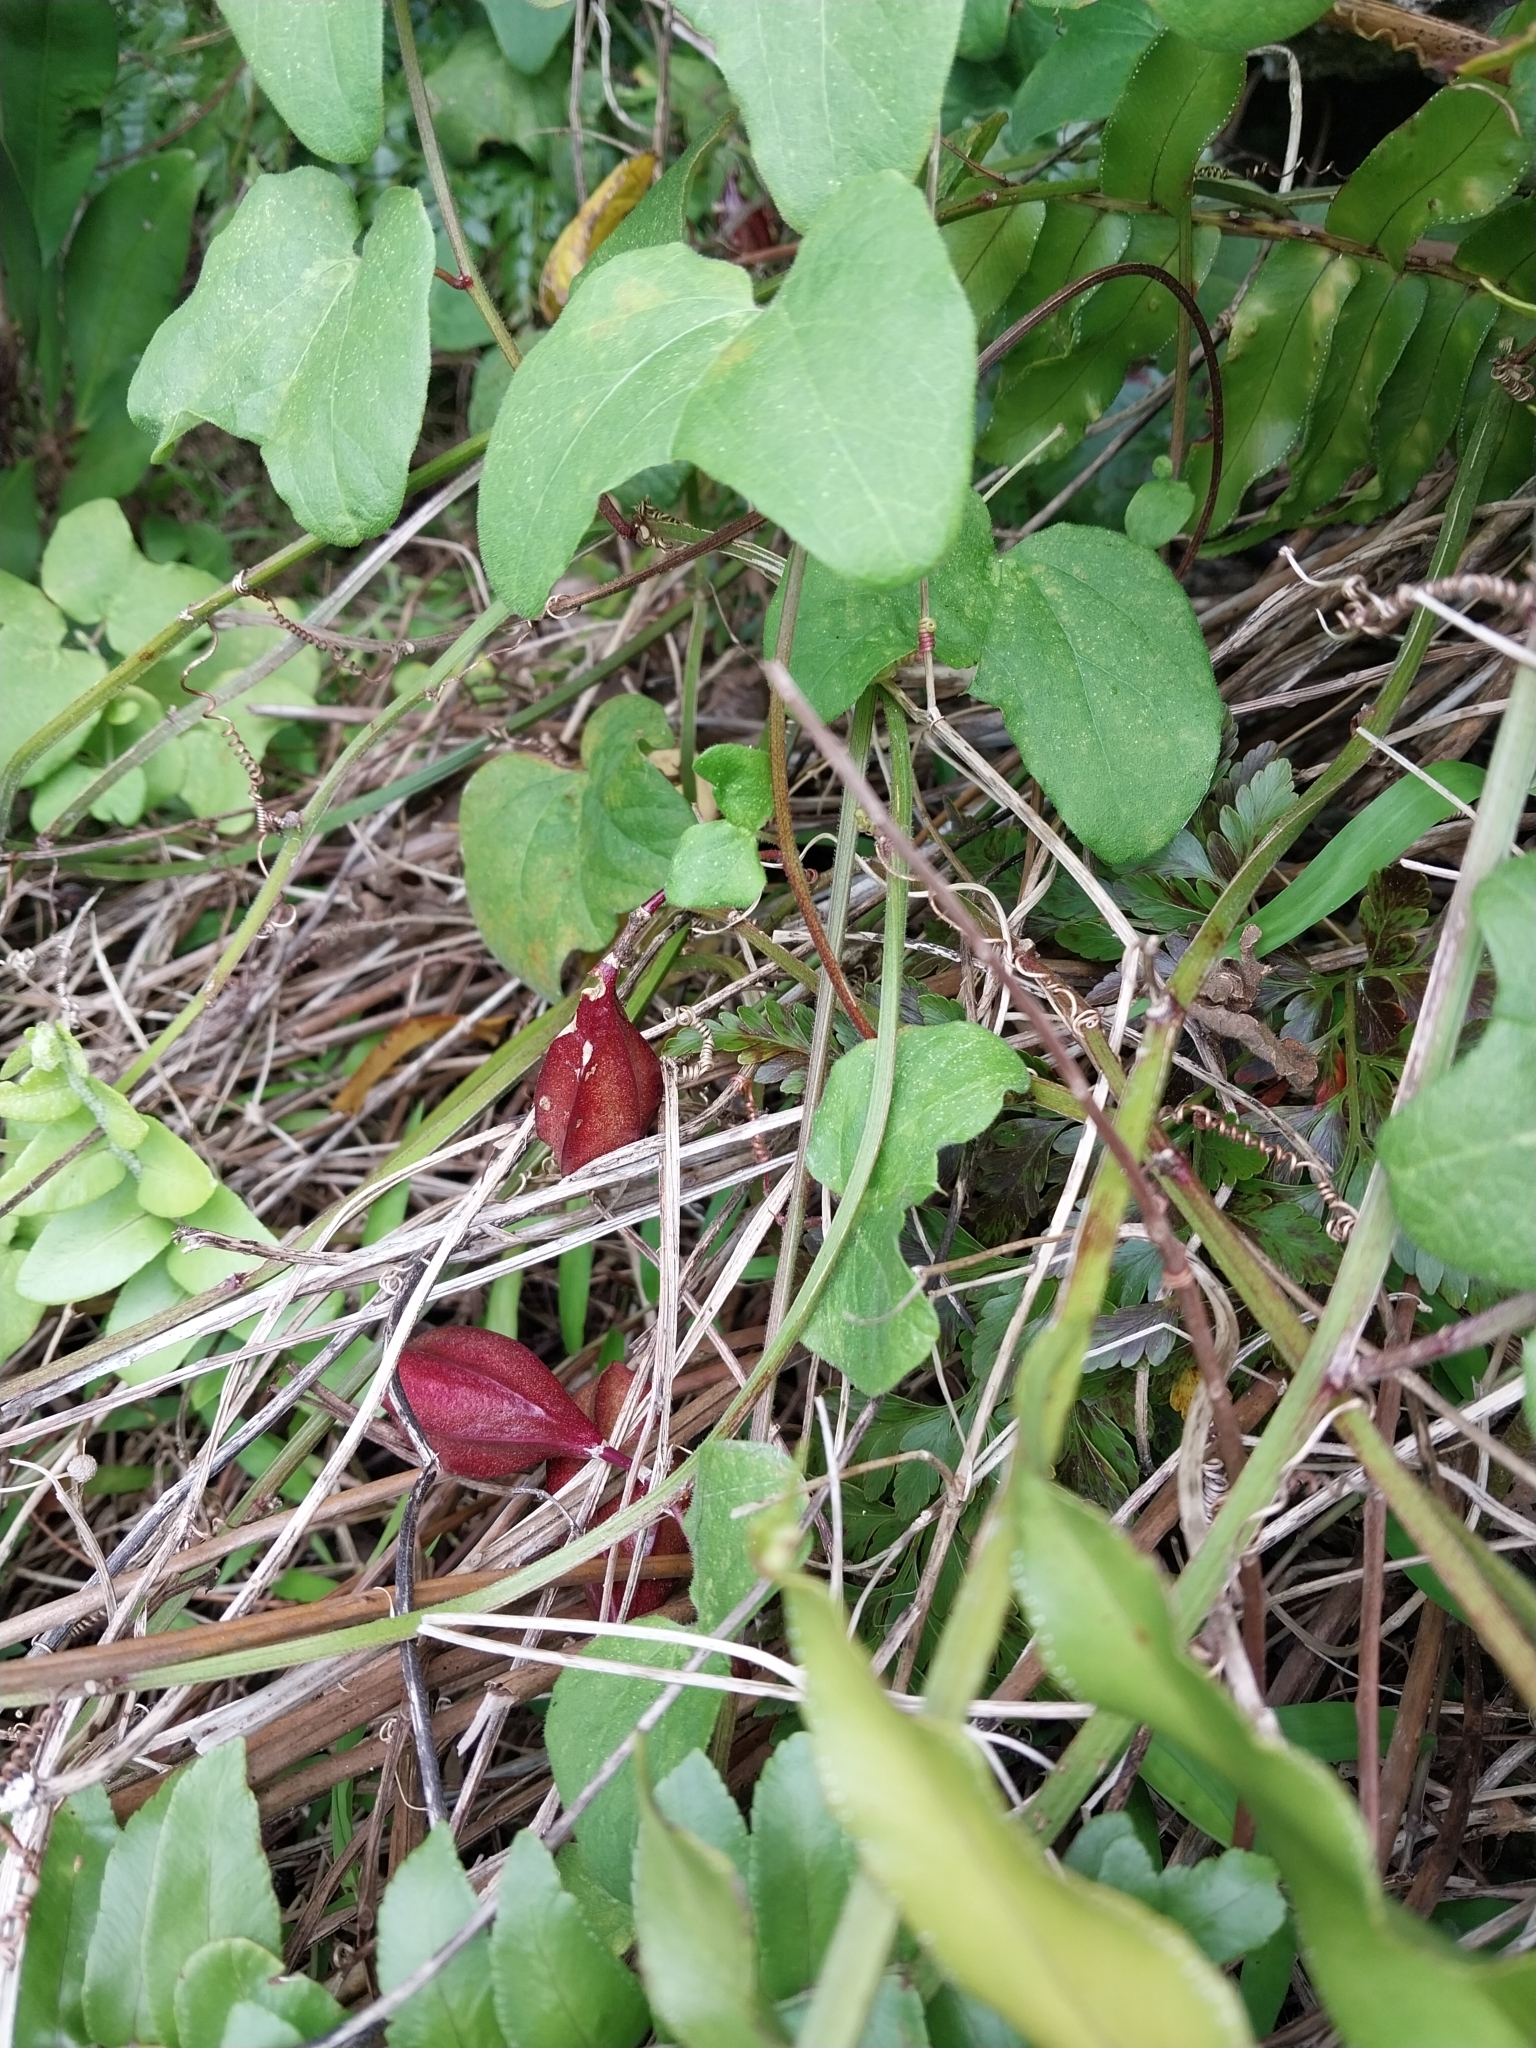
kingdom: Plantae
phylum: Tracheophyta
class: Magnoliopsida
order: Malpighiales
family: Passifloraceae
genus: Passiflora
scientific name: Passiflora rubra
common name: Snakeberry vine
